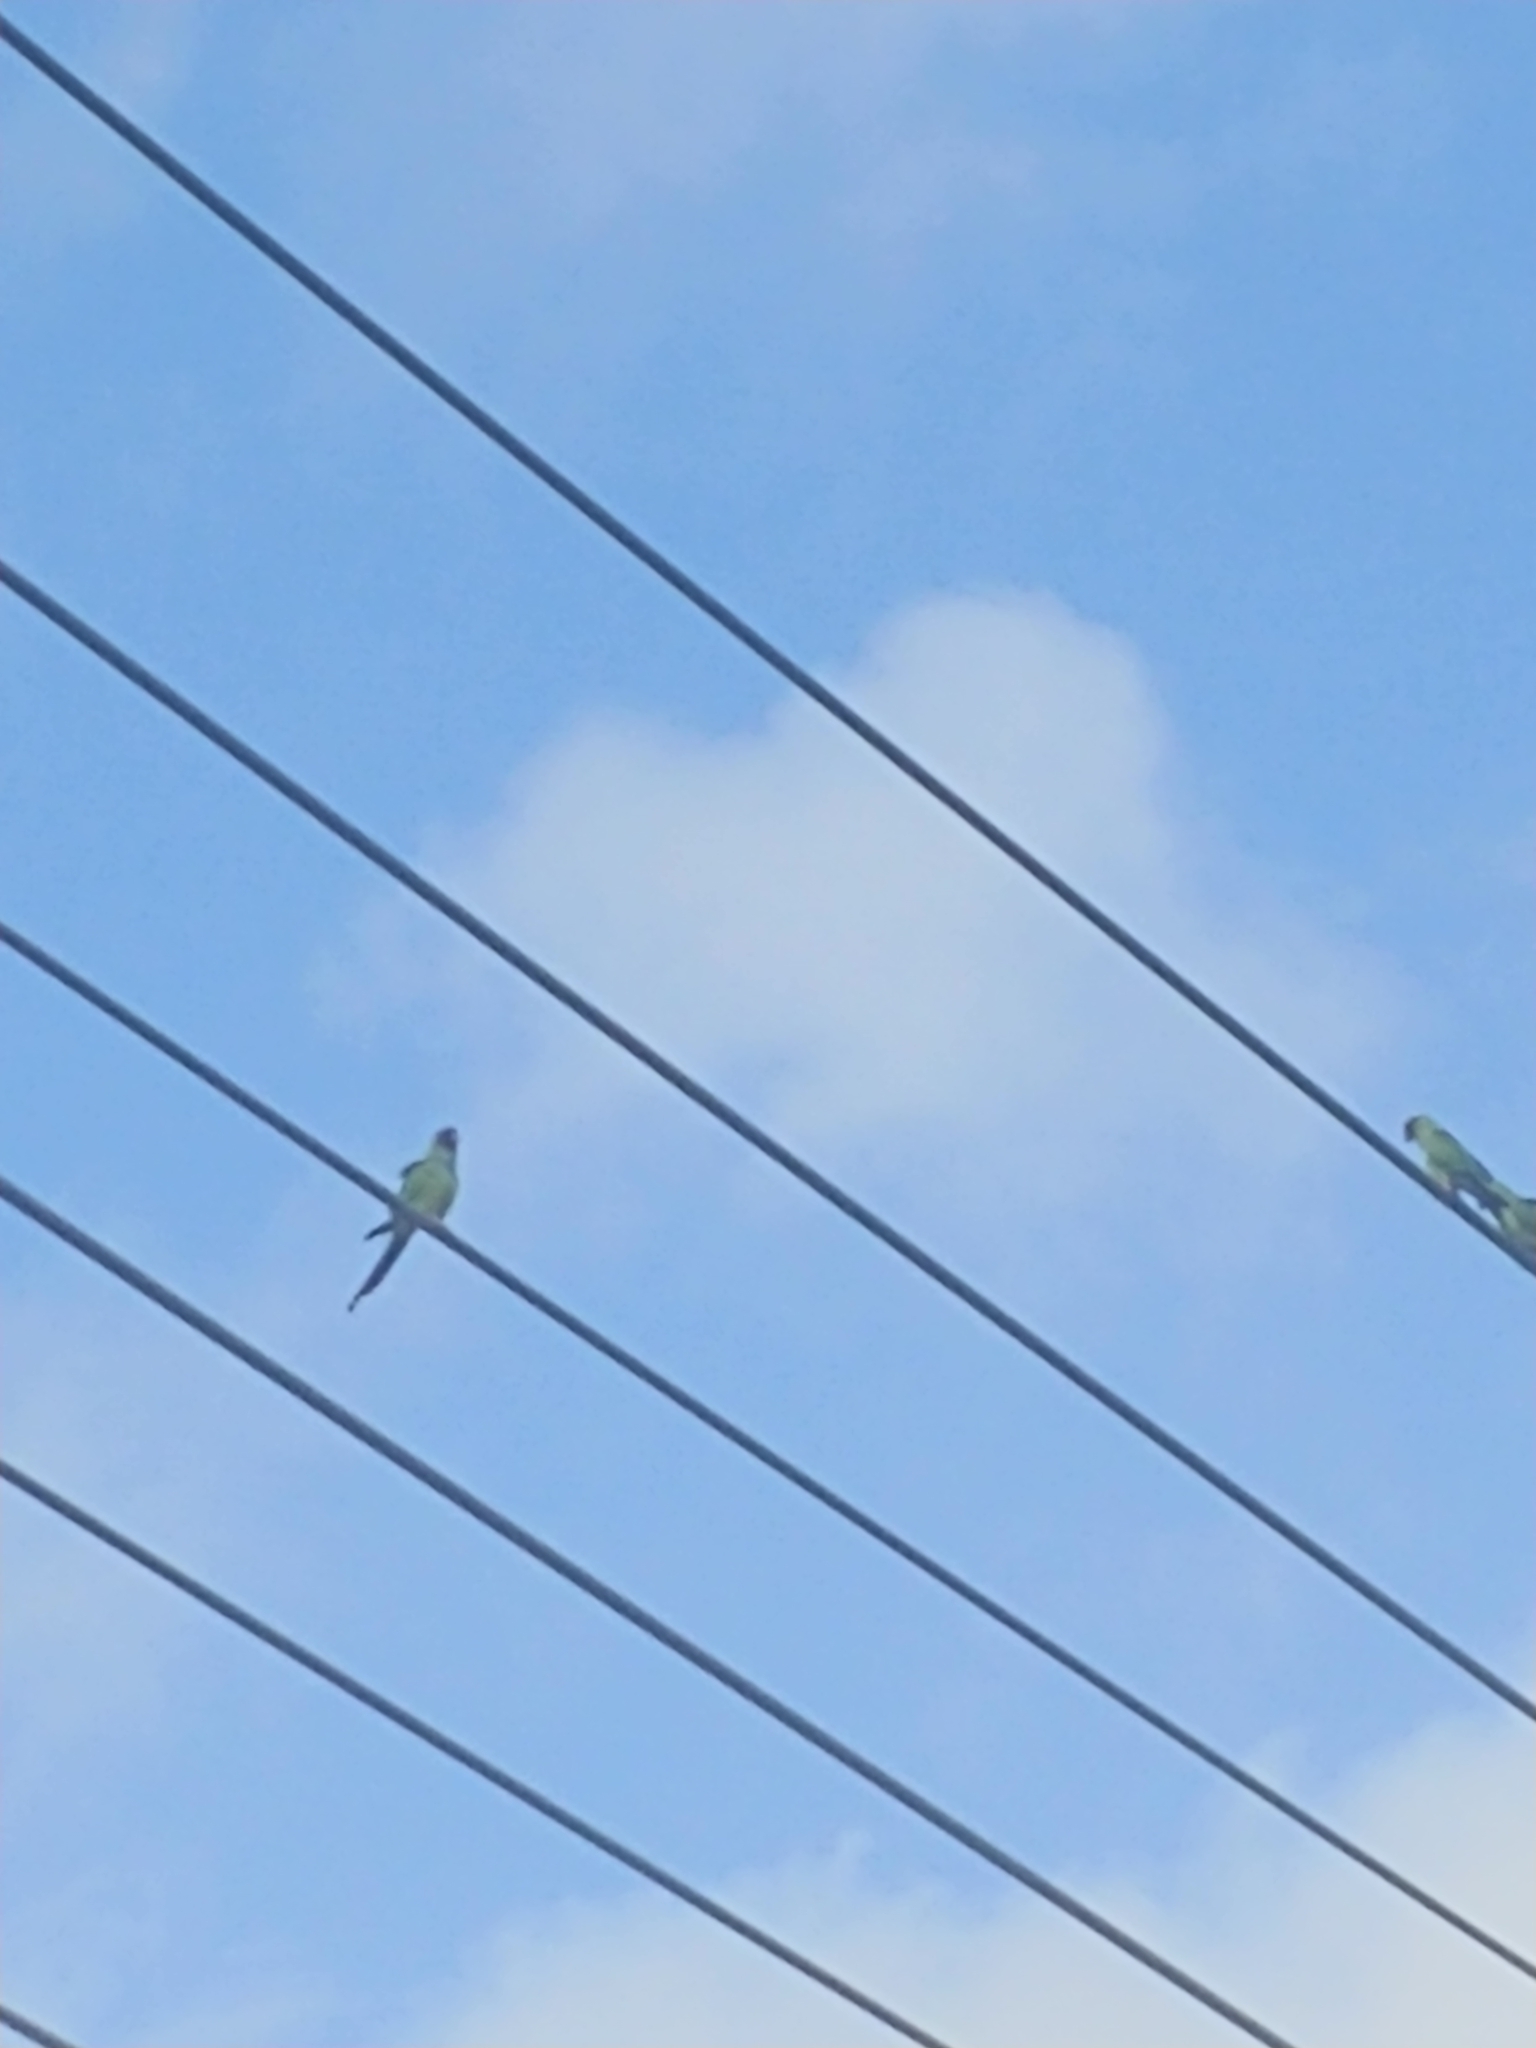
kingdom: Animalia
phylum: Chordata
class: Aves
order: Psittaciformes
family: Psittacidae
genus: Nandayus
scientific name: Nandayus nenday
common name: Nanday parakeet
